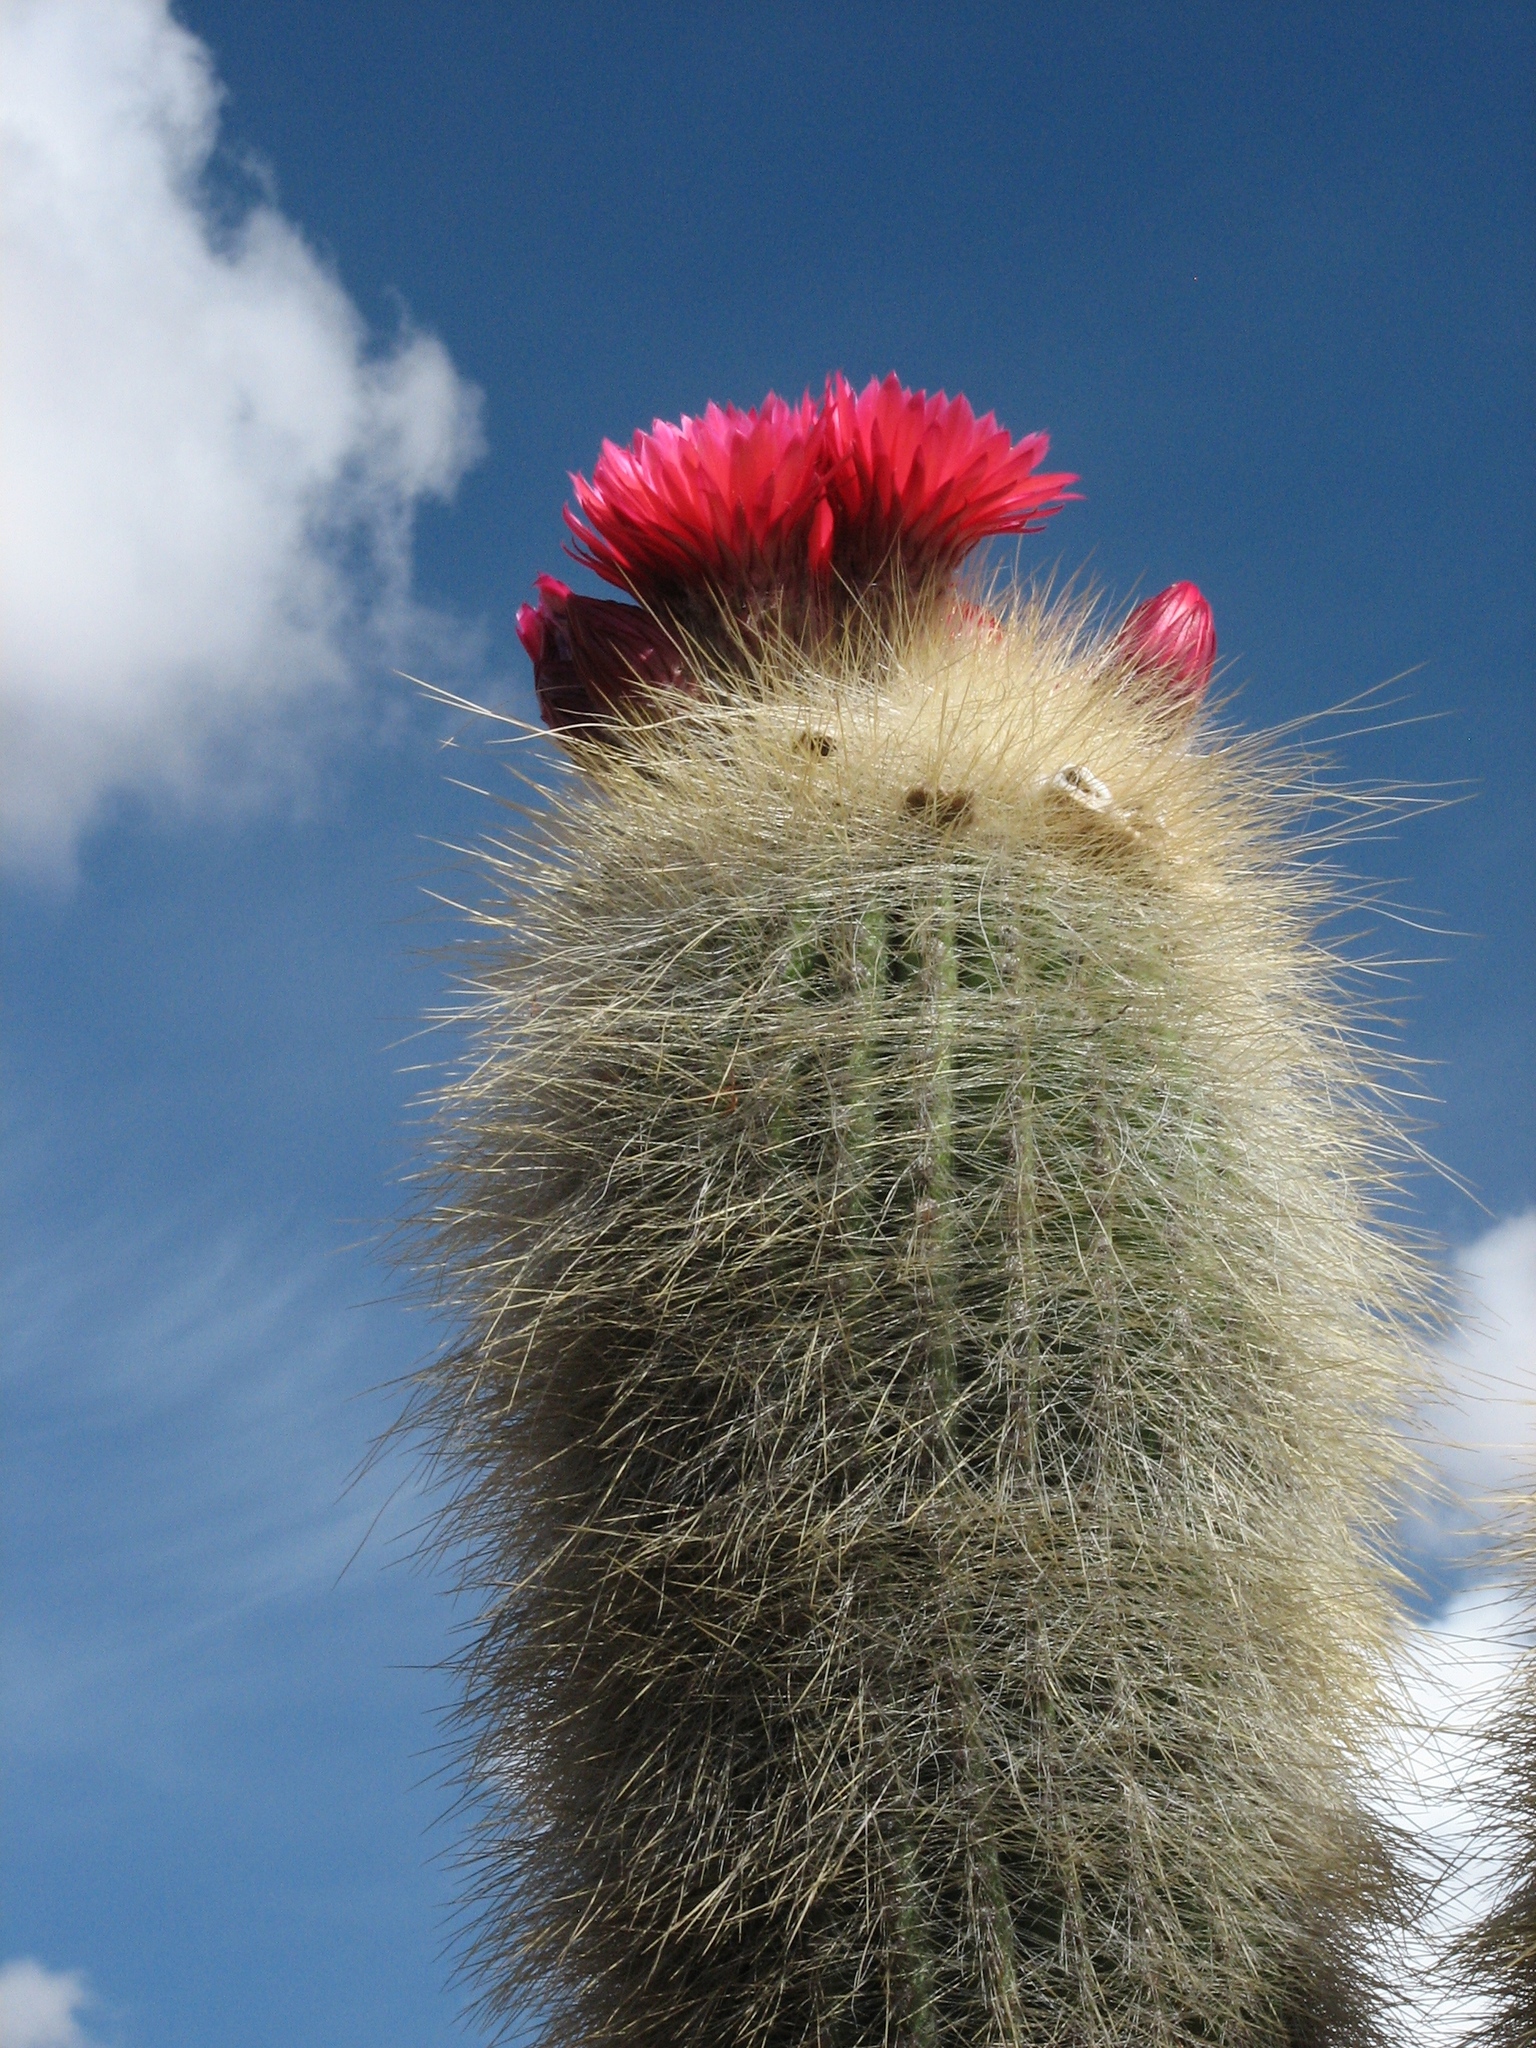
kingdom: Plantae
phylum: Tracheophyta
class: Magnoliopsida
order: Caryophyllales
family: Cactaceae
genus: Soehrensia
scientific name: Soehrensia tarijensis
